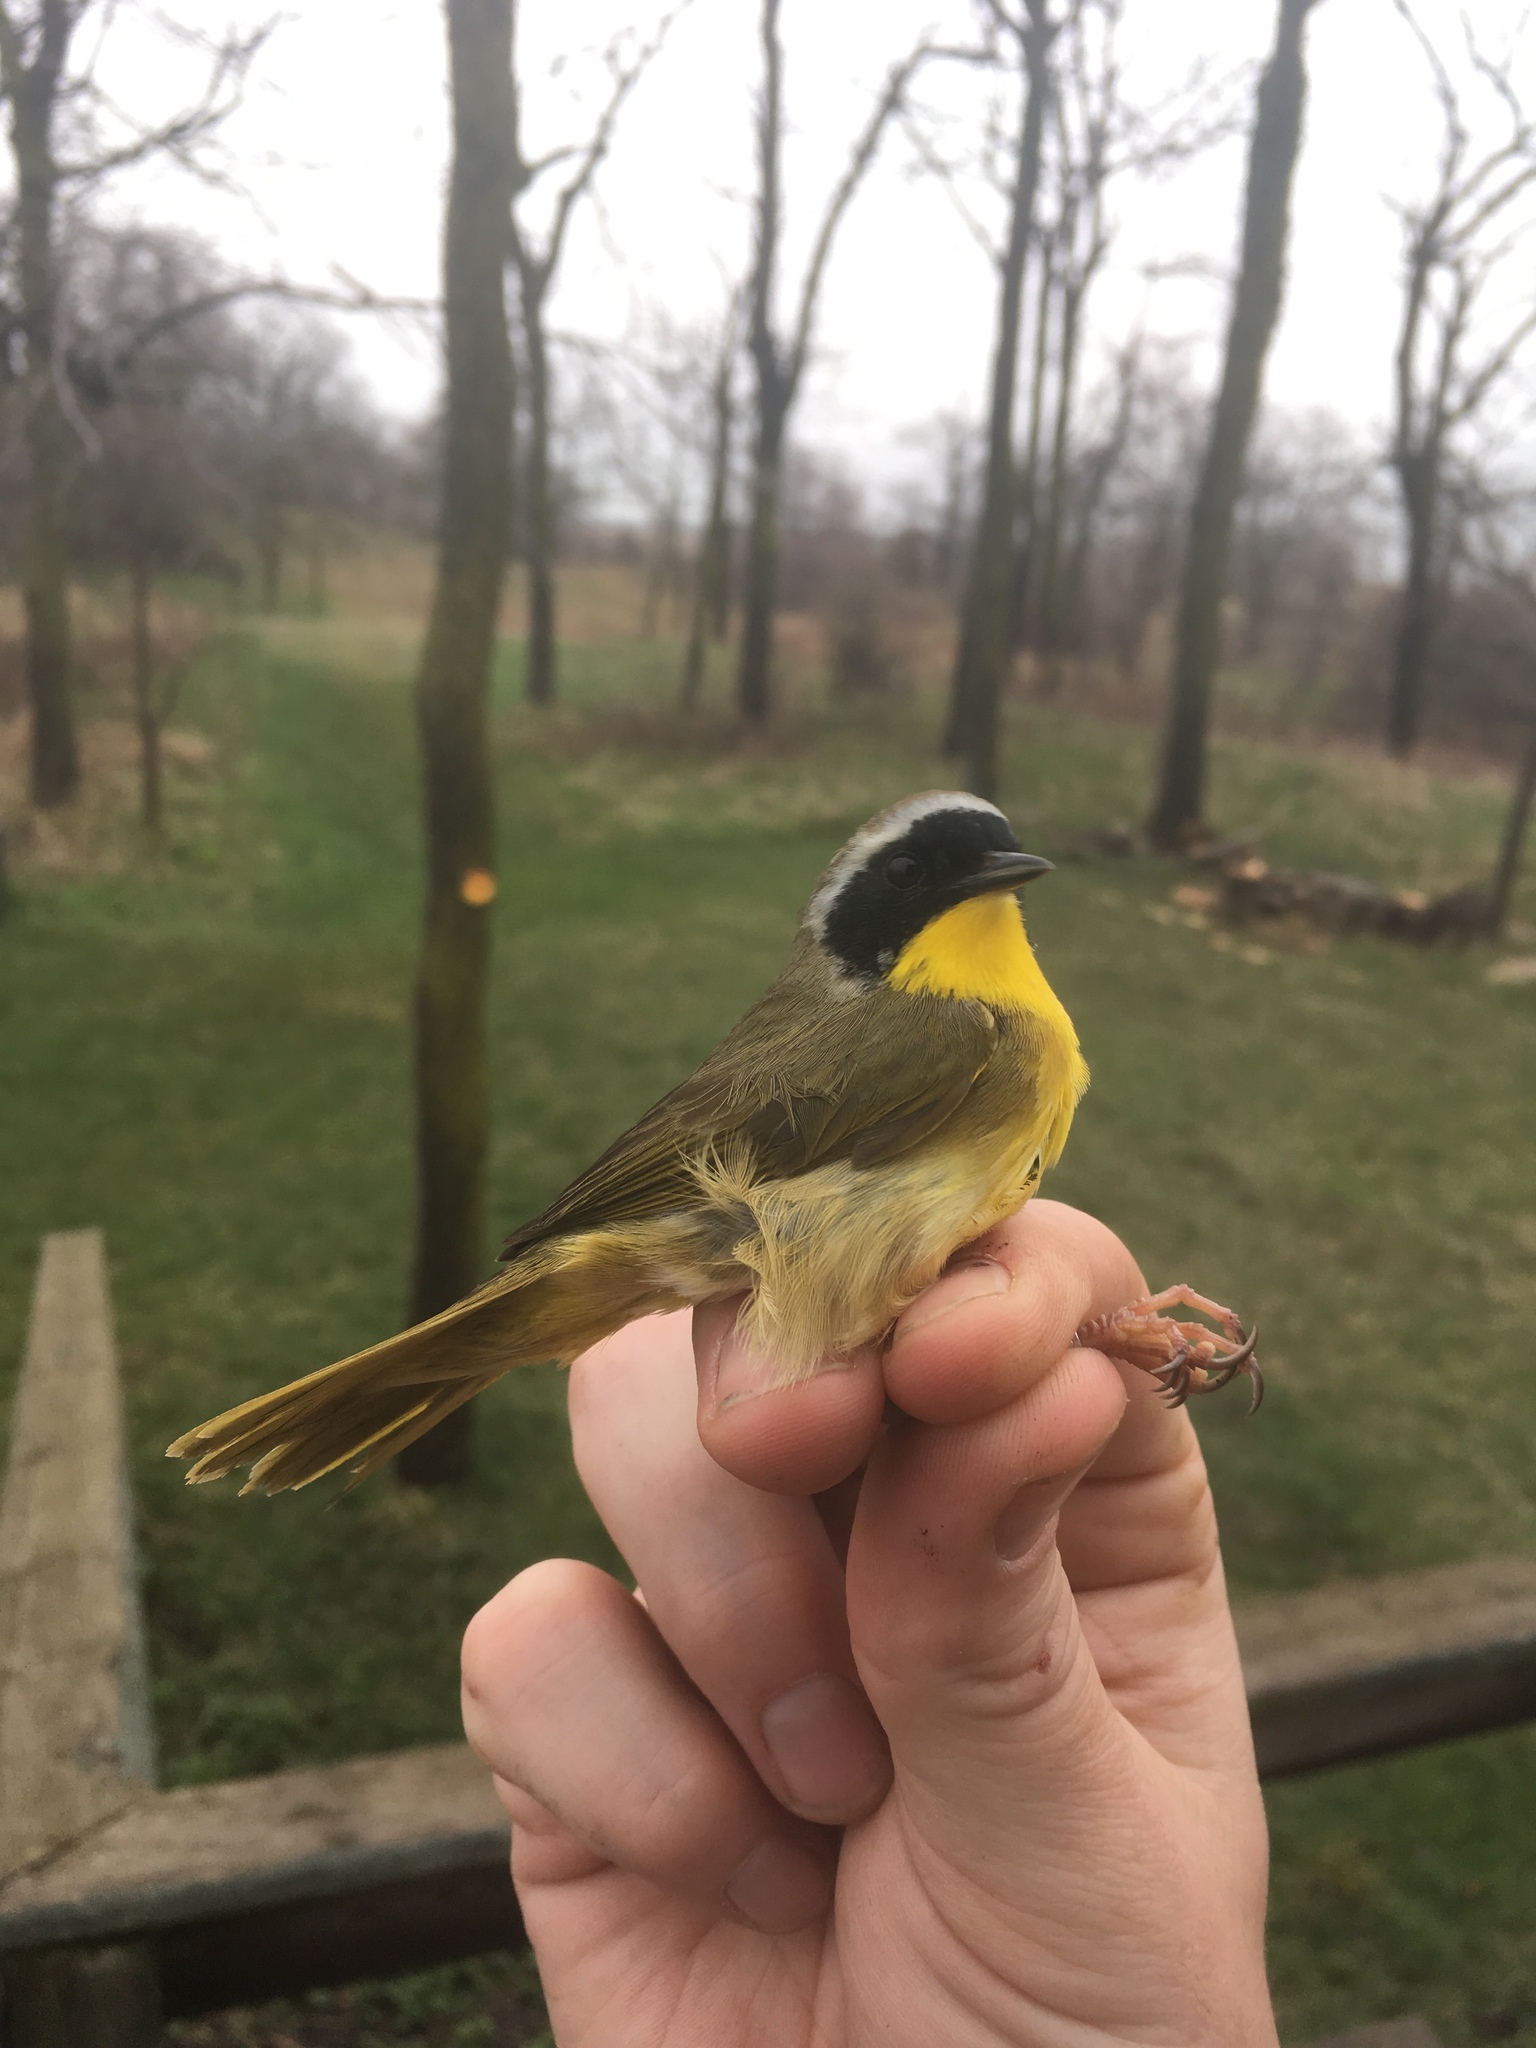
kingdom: Animalia
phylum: Chordata
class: Aves
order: Passeriformes
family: Parulidae
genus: Geothlypis
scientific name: Geothlypis trichas
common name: Common yellowthroat
